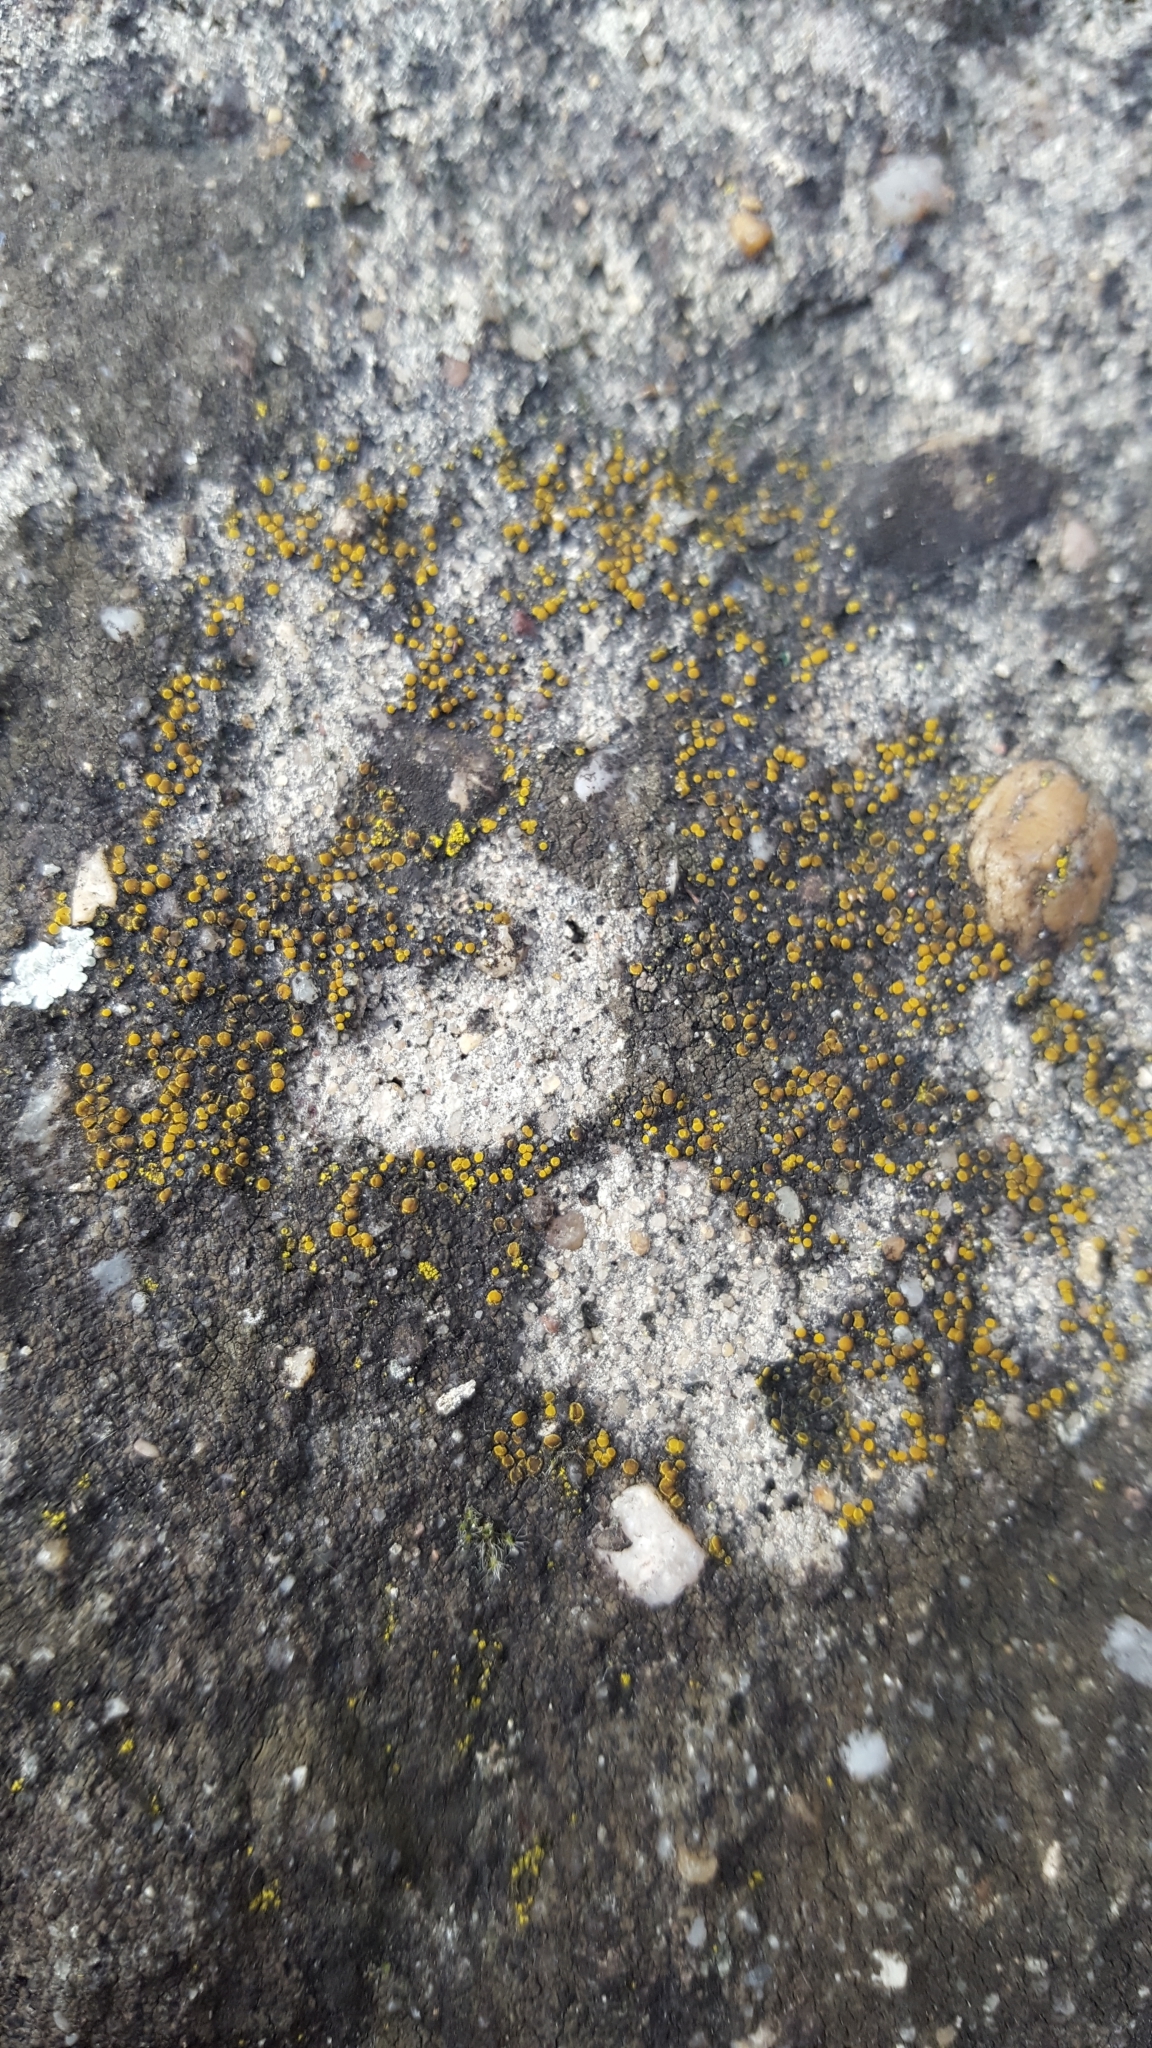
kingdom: Fungi
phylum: Ascomycota
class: Candelariomycetes
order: Candelariales
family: Candelariaceae
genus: Candelariella
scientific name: Candelariella aurella
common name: Hidden goldspeck lichen
